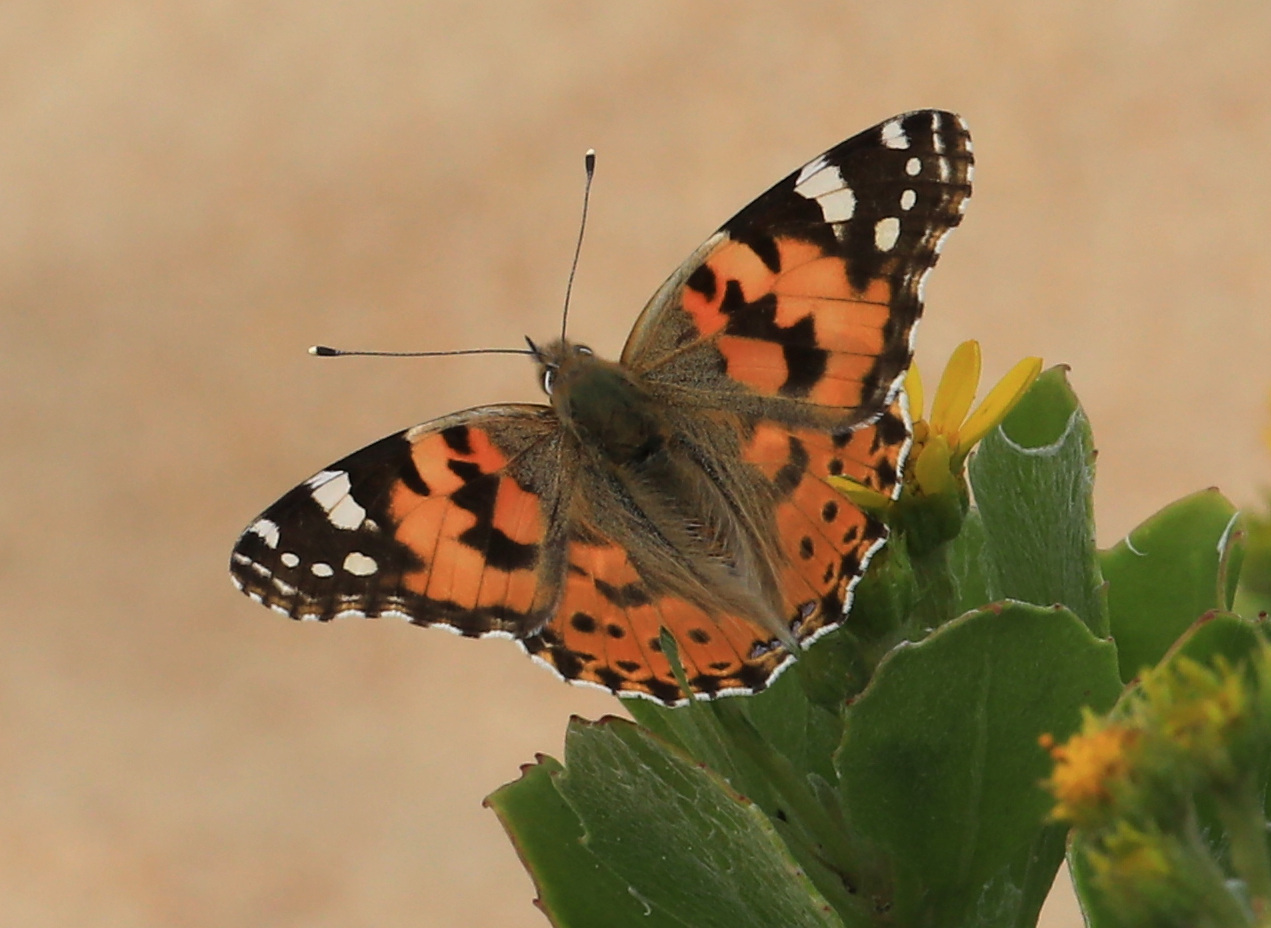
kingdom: Animalia
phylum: Arthropoda
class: Insecta
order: Lepidoptera
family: Nymphalidae
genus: Vanessa
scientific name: Vanessa cardui
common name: Painted lady
